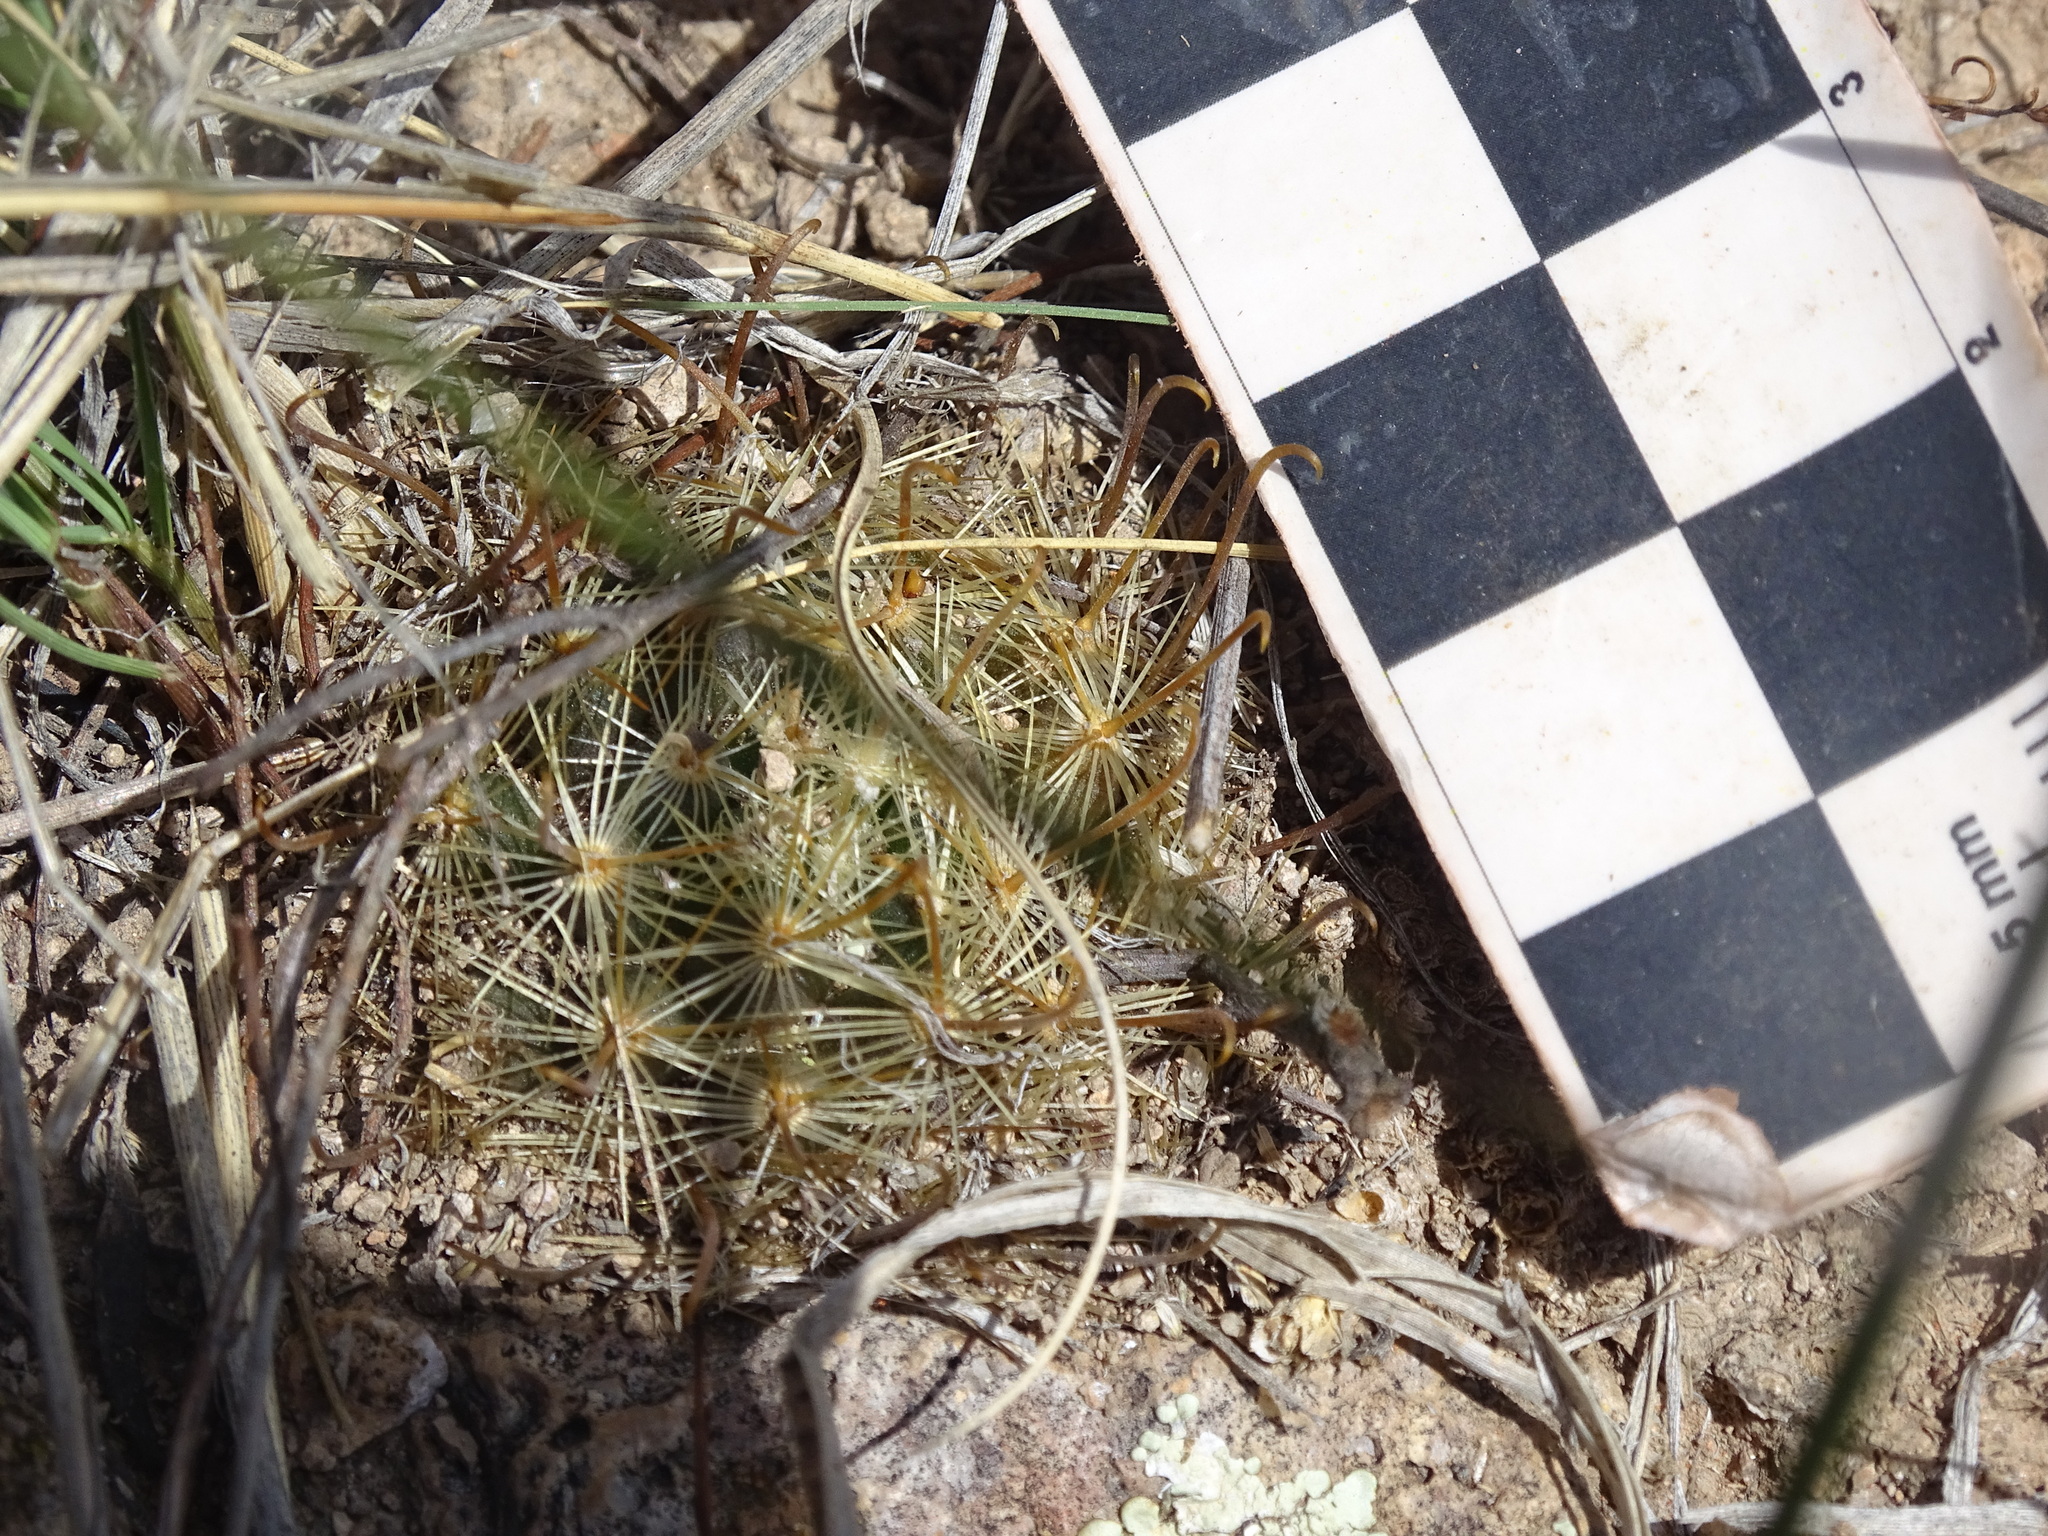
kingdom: Plantae
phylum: Tracheophyta
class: Magnoliopsida
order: Caryophyllales
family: Cactaceae
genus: Mammillaria
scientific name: Mammillaria jaliscana
